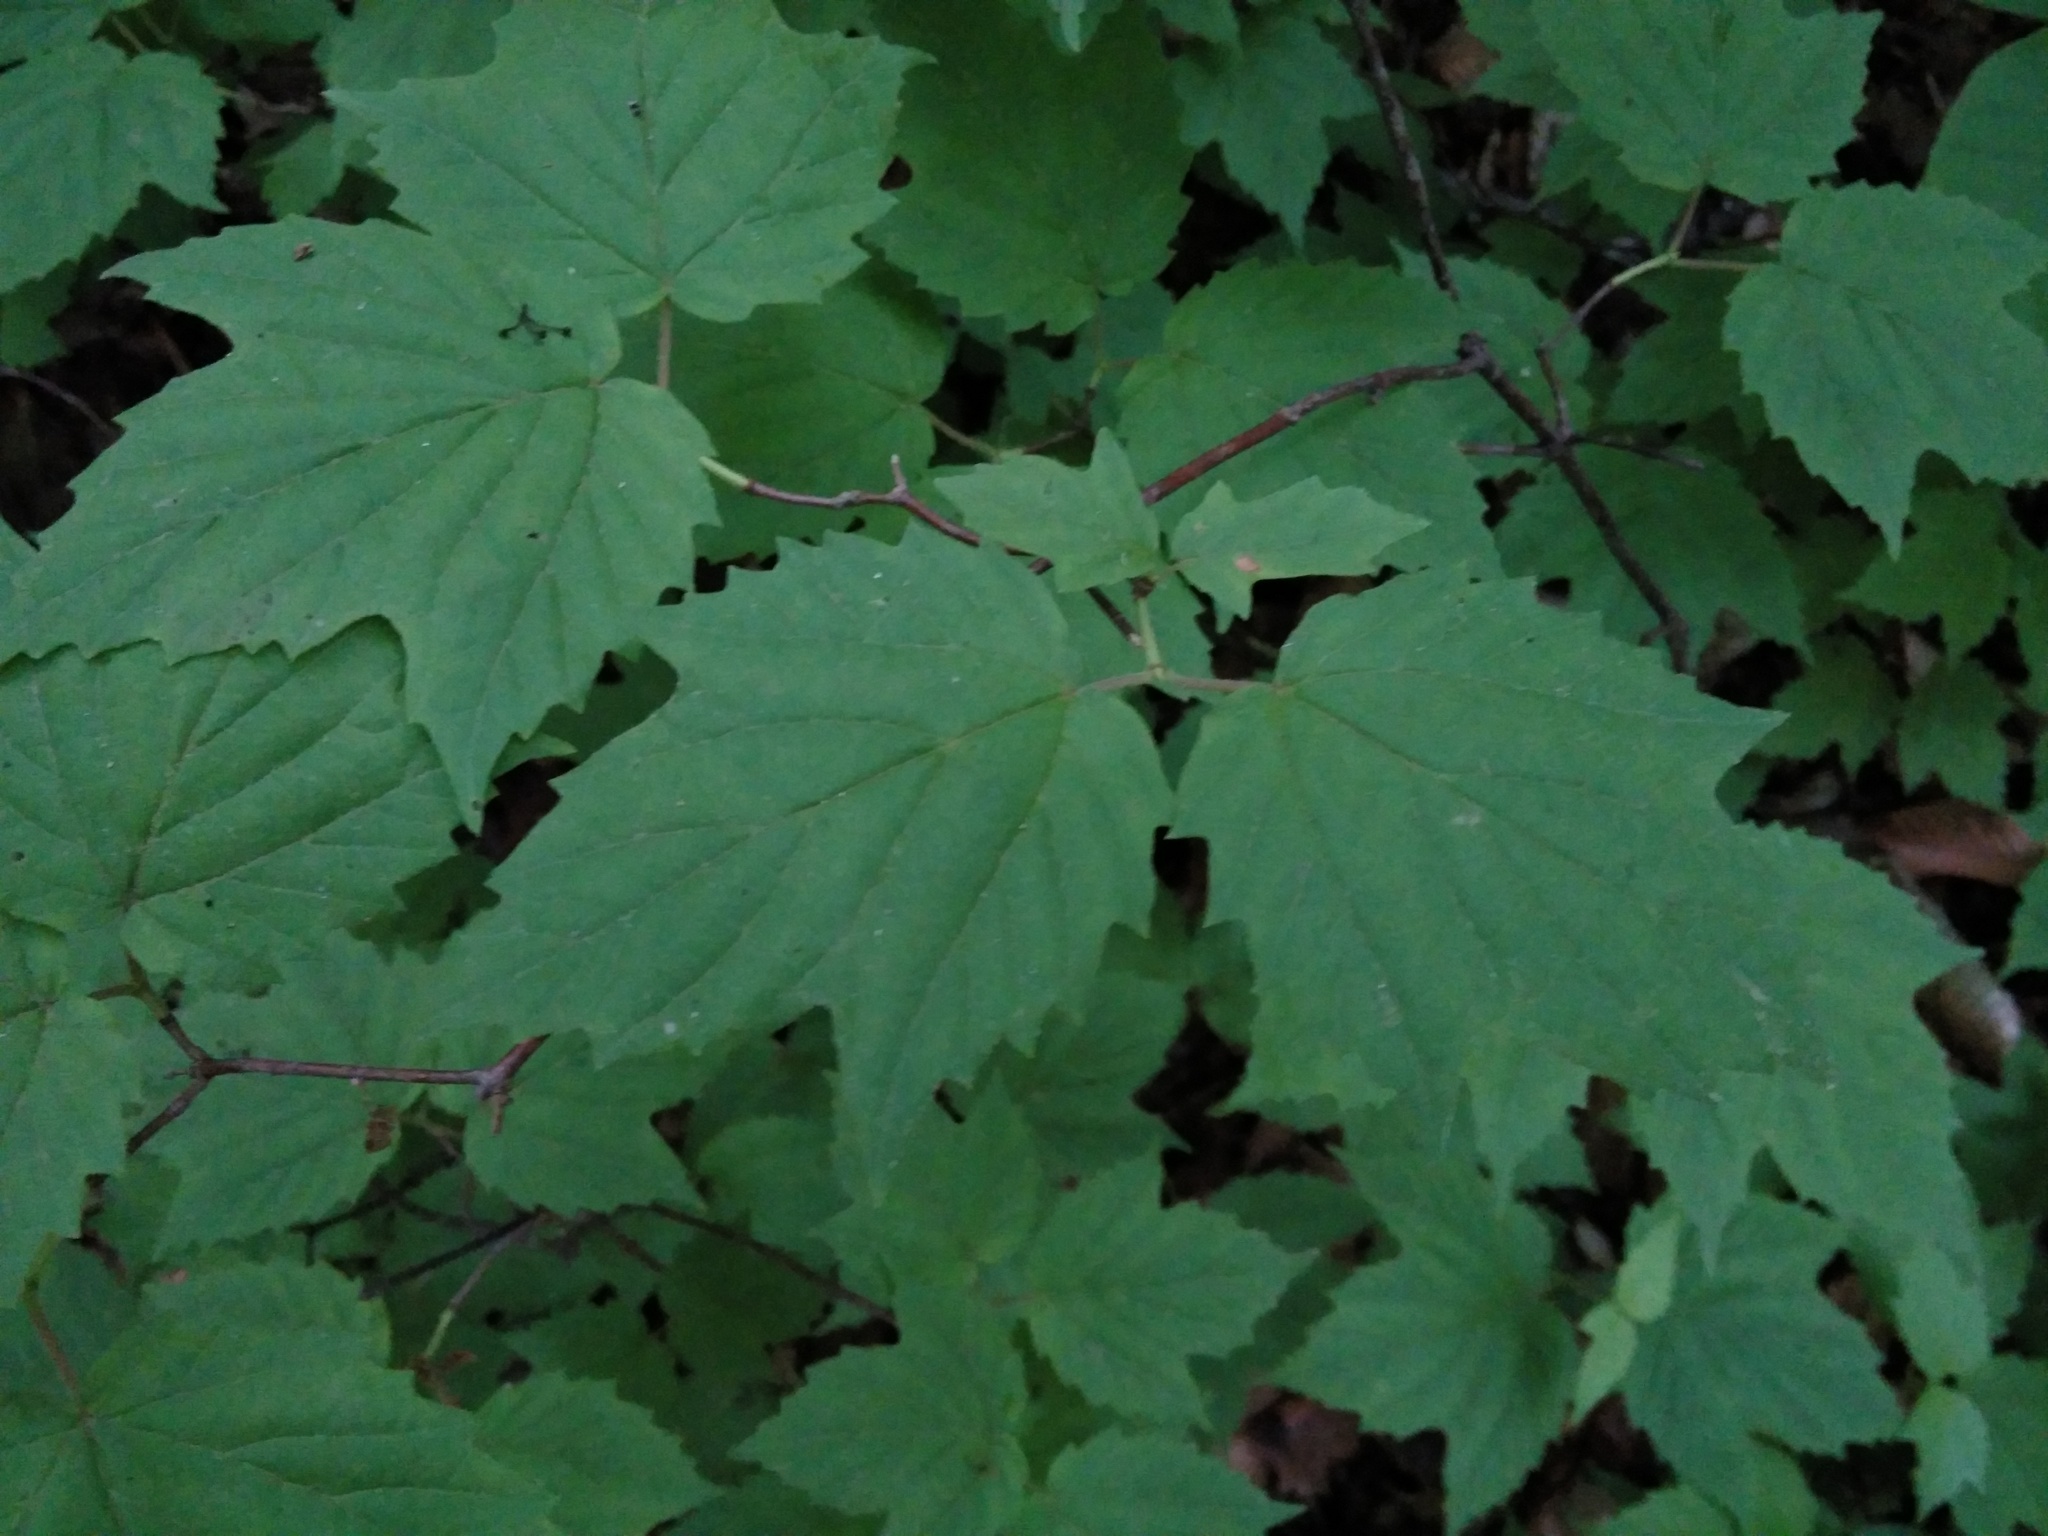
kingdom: Plantae
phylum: Tracheophyta
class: Magnoliopsida
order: Dipsacales
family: Viburnaceae
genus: Viburnum
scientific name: Viburnum acerifolium
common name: Dockmackie
